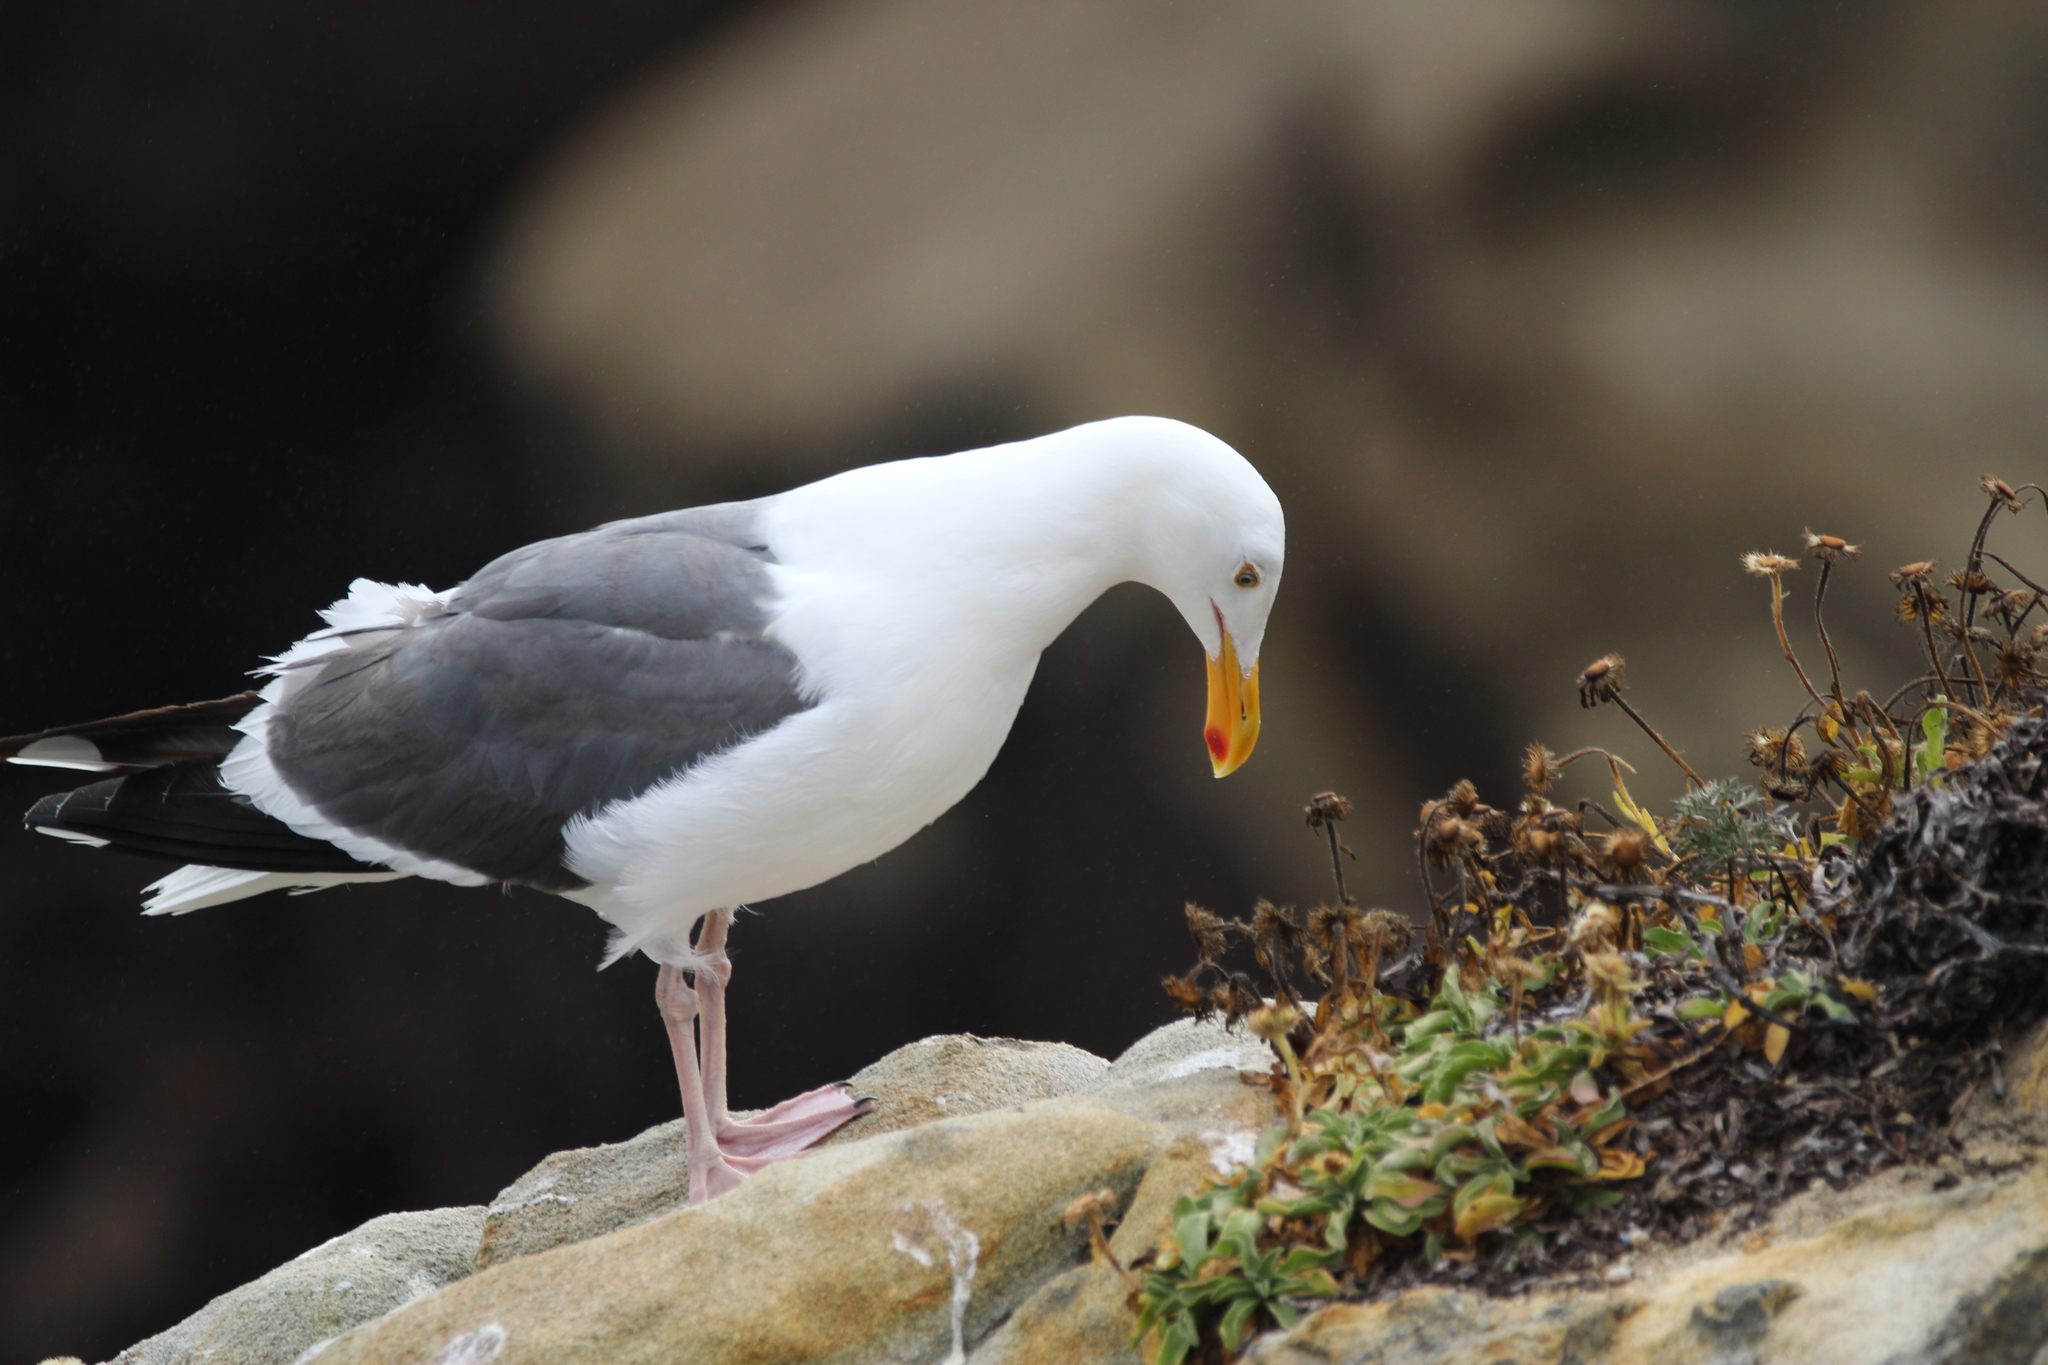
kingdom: Animalia
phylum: Chordata
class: Aves
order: Charadriiformes
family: Laridae
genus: Larus
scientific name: Larus occidentalis
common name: Western gull
